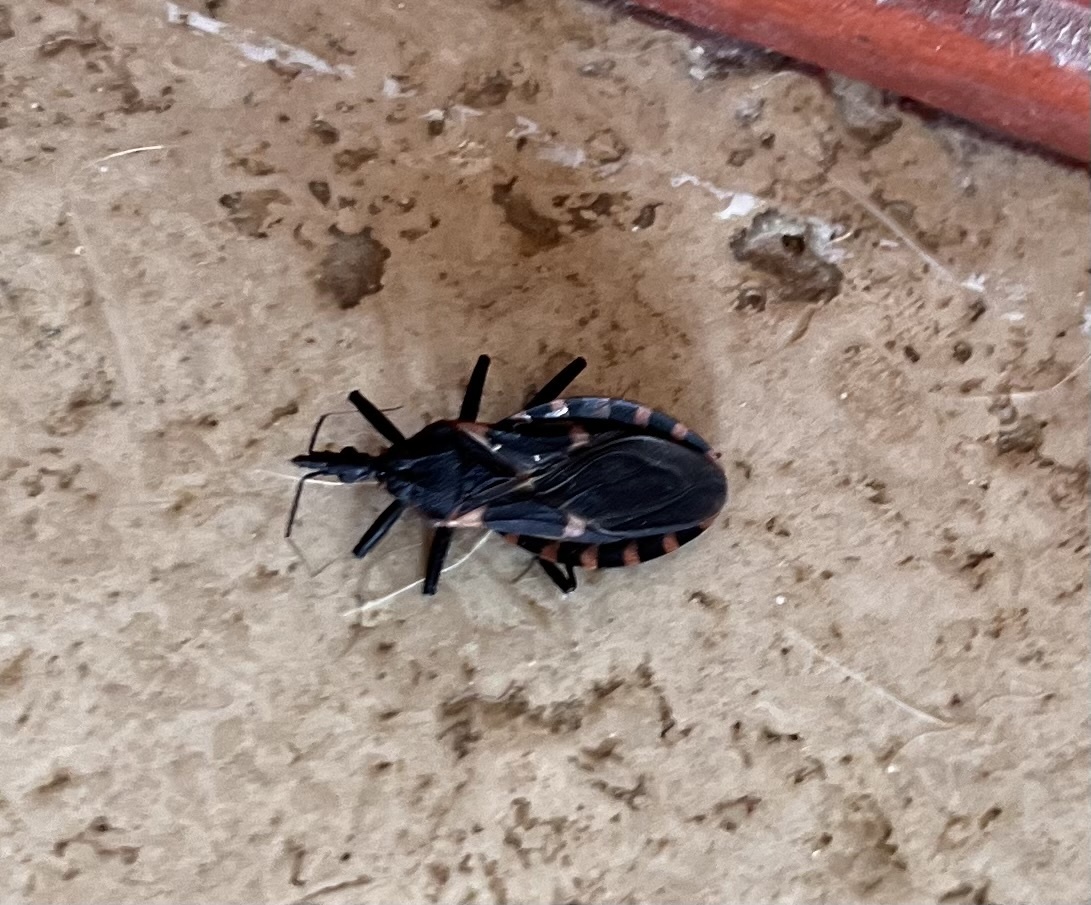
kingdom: Animalia
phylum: Arthropoda
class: Insecta
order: Hemiptera
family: Reduviidae
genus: Triatoma
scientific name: Triatoma sanguisuga
